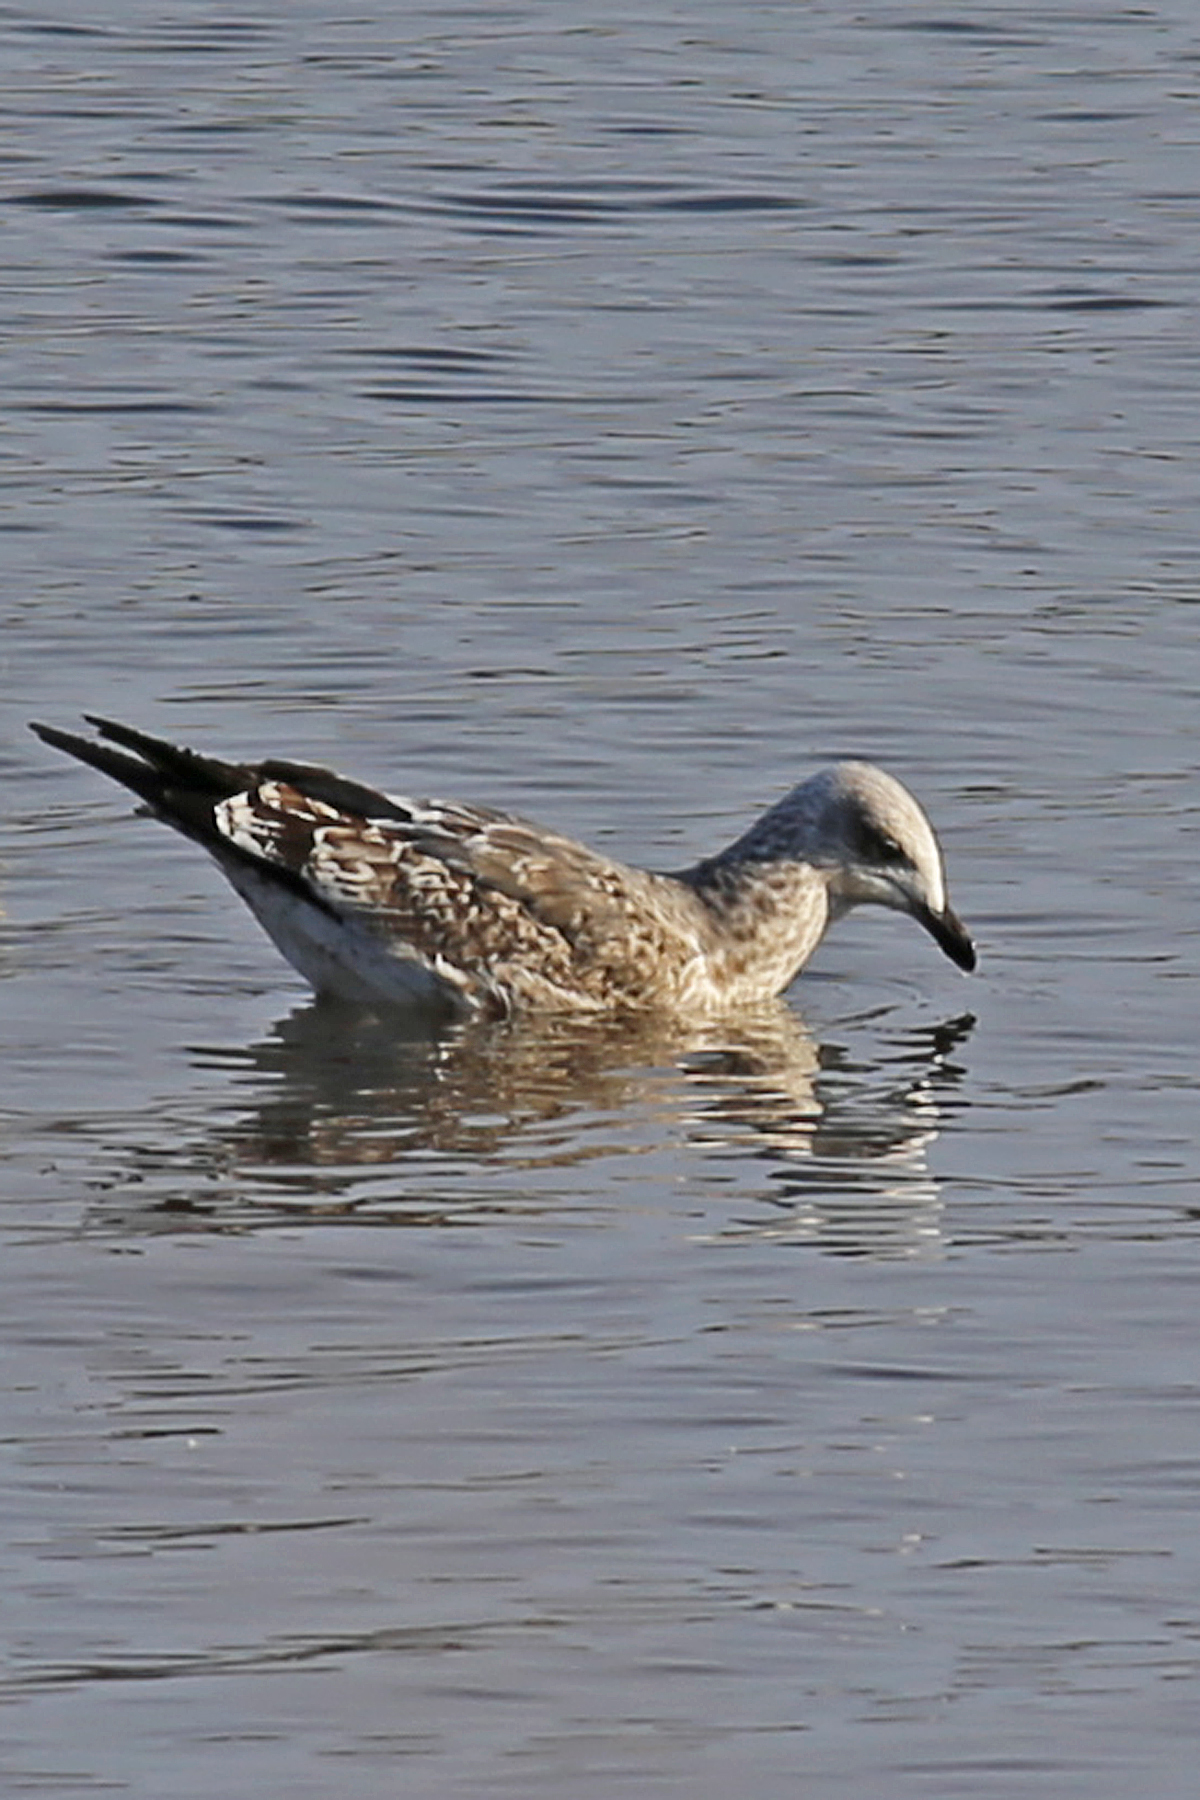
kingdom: Animalia
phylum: Chordata
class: Aves
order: Charadriiformes
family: Laridae
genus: Larus
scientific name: Larus fuscus
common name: Lesser black-backed gull
